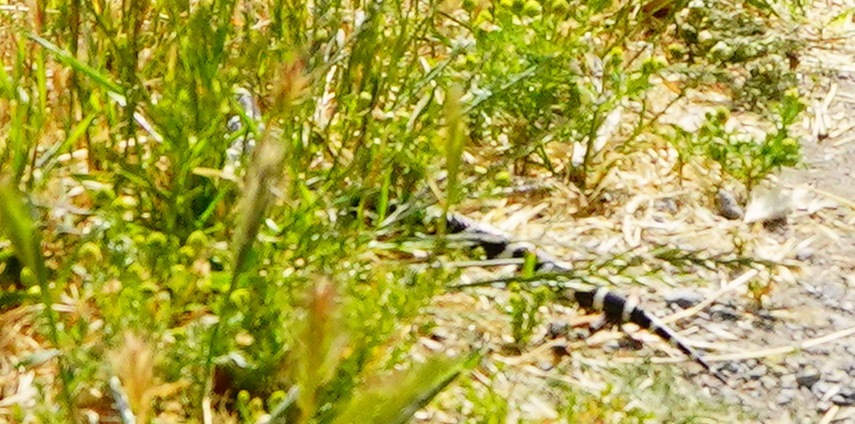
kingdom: Animalia
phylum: Chordata
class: Squamata
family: Colubridae
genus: Lampropeltis
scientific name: Lampropeltis californiae
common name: California kingsnake
